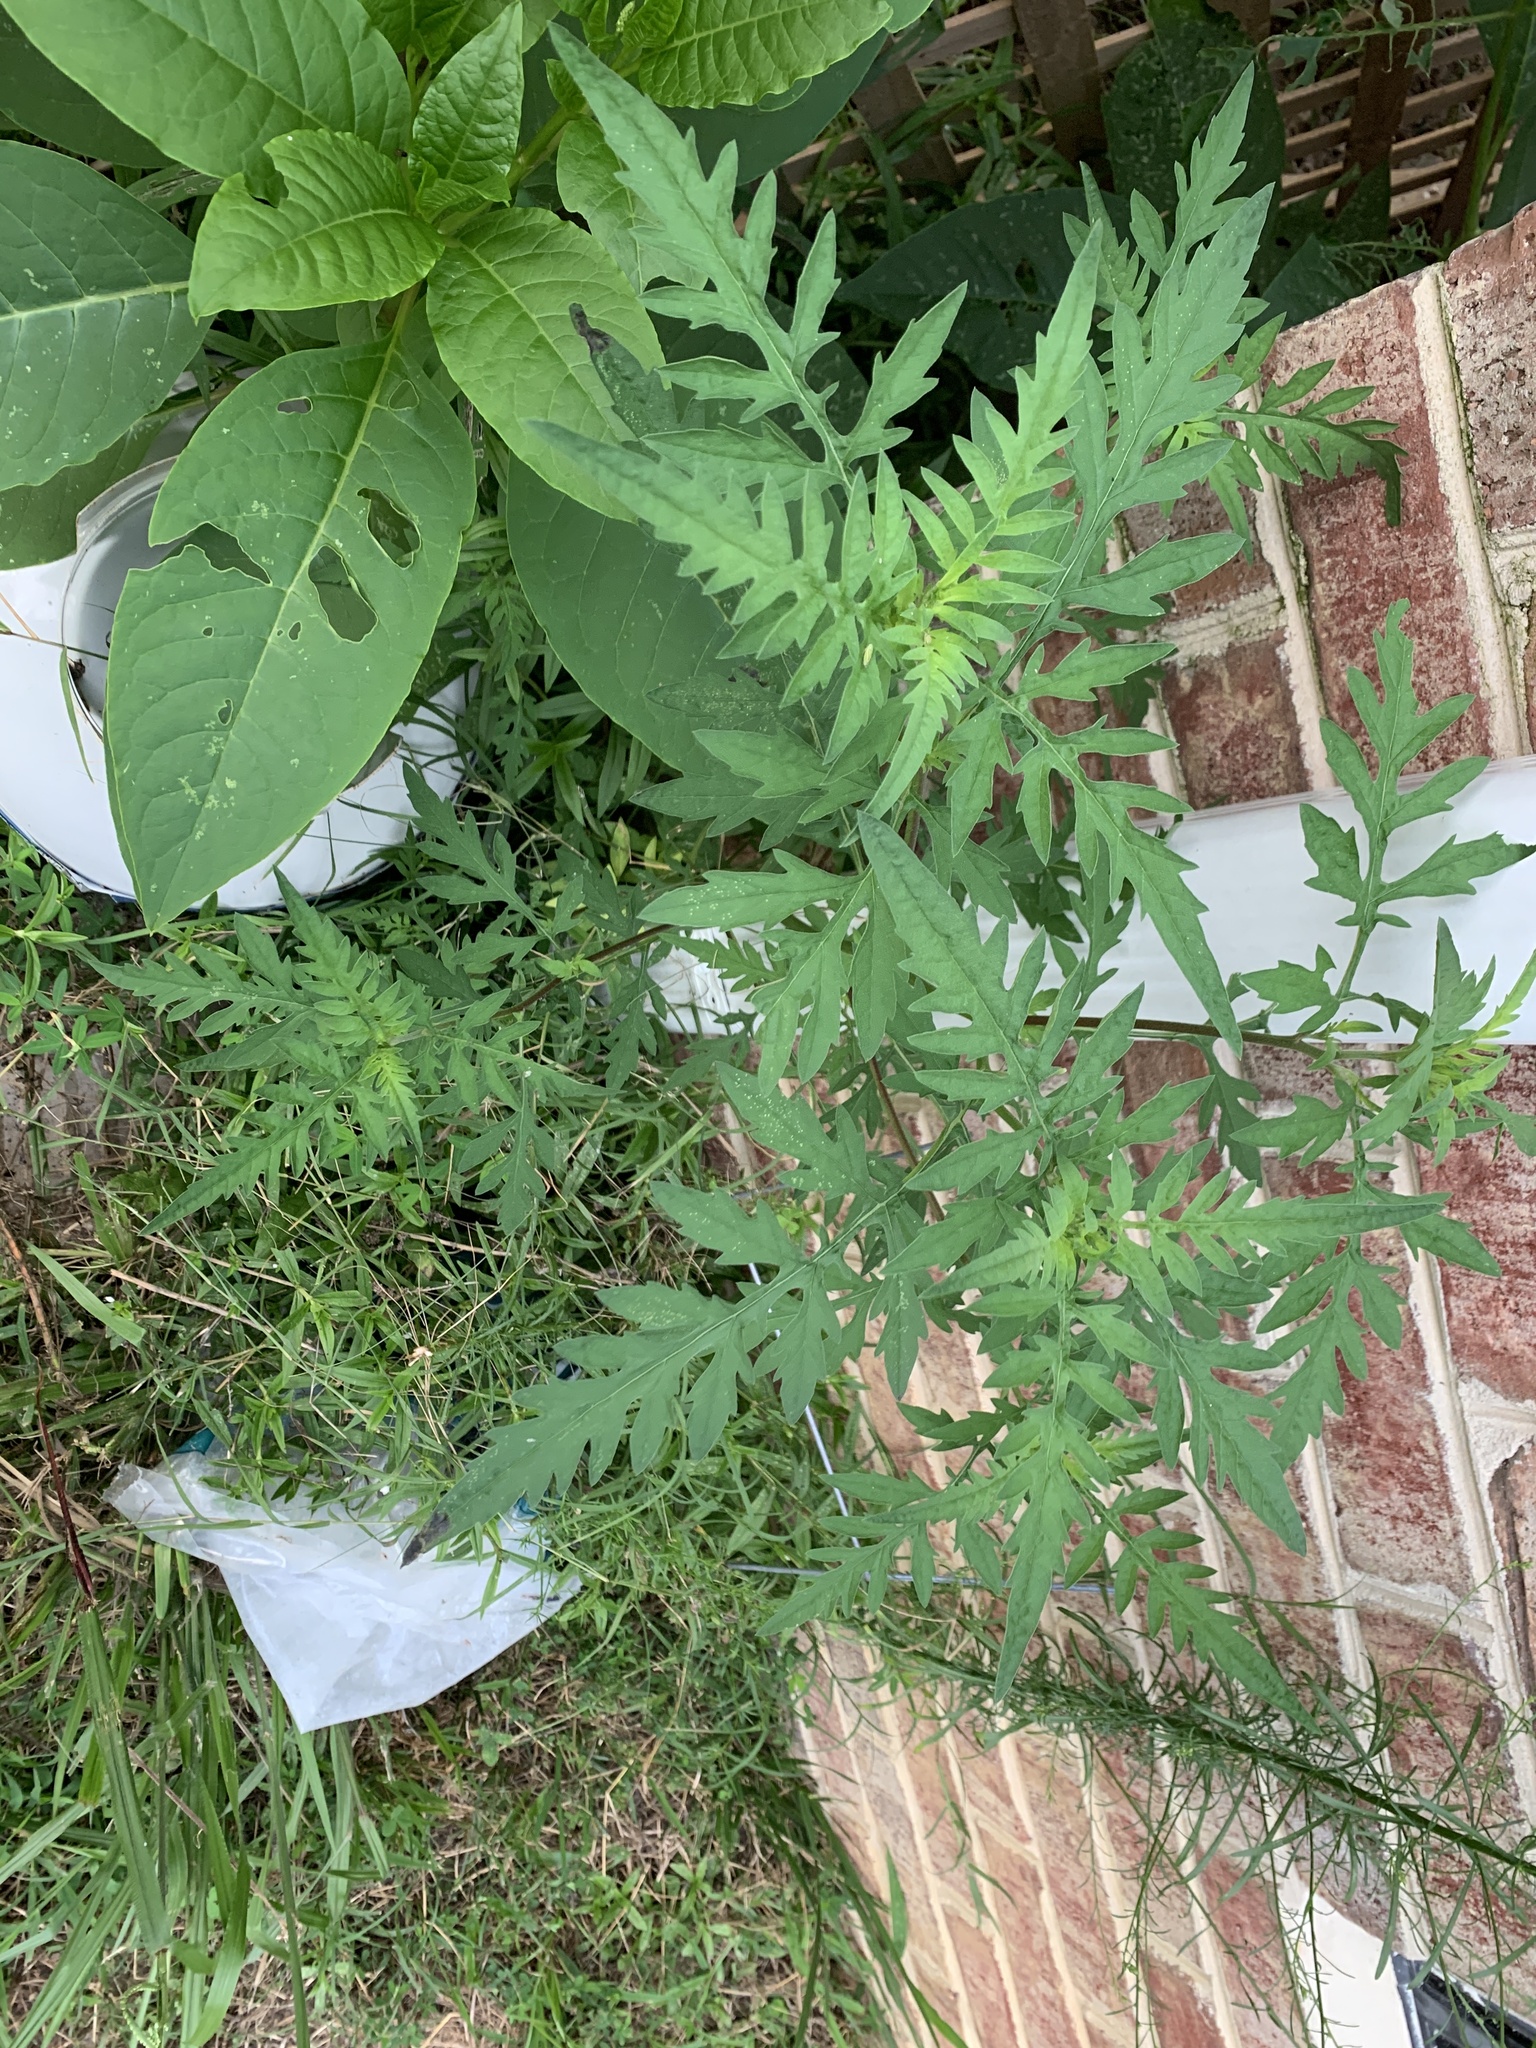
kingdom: Plantae
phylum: Tracheophyta
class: Magnoliopsida
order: Asterales
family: Asteraceae
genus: Ambrosia
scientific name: Ambrosia artemisiifolia
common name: Annual ragweed
